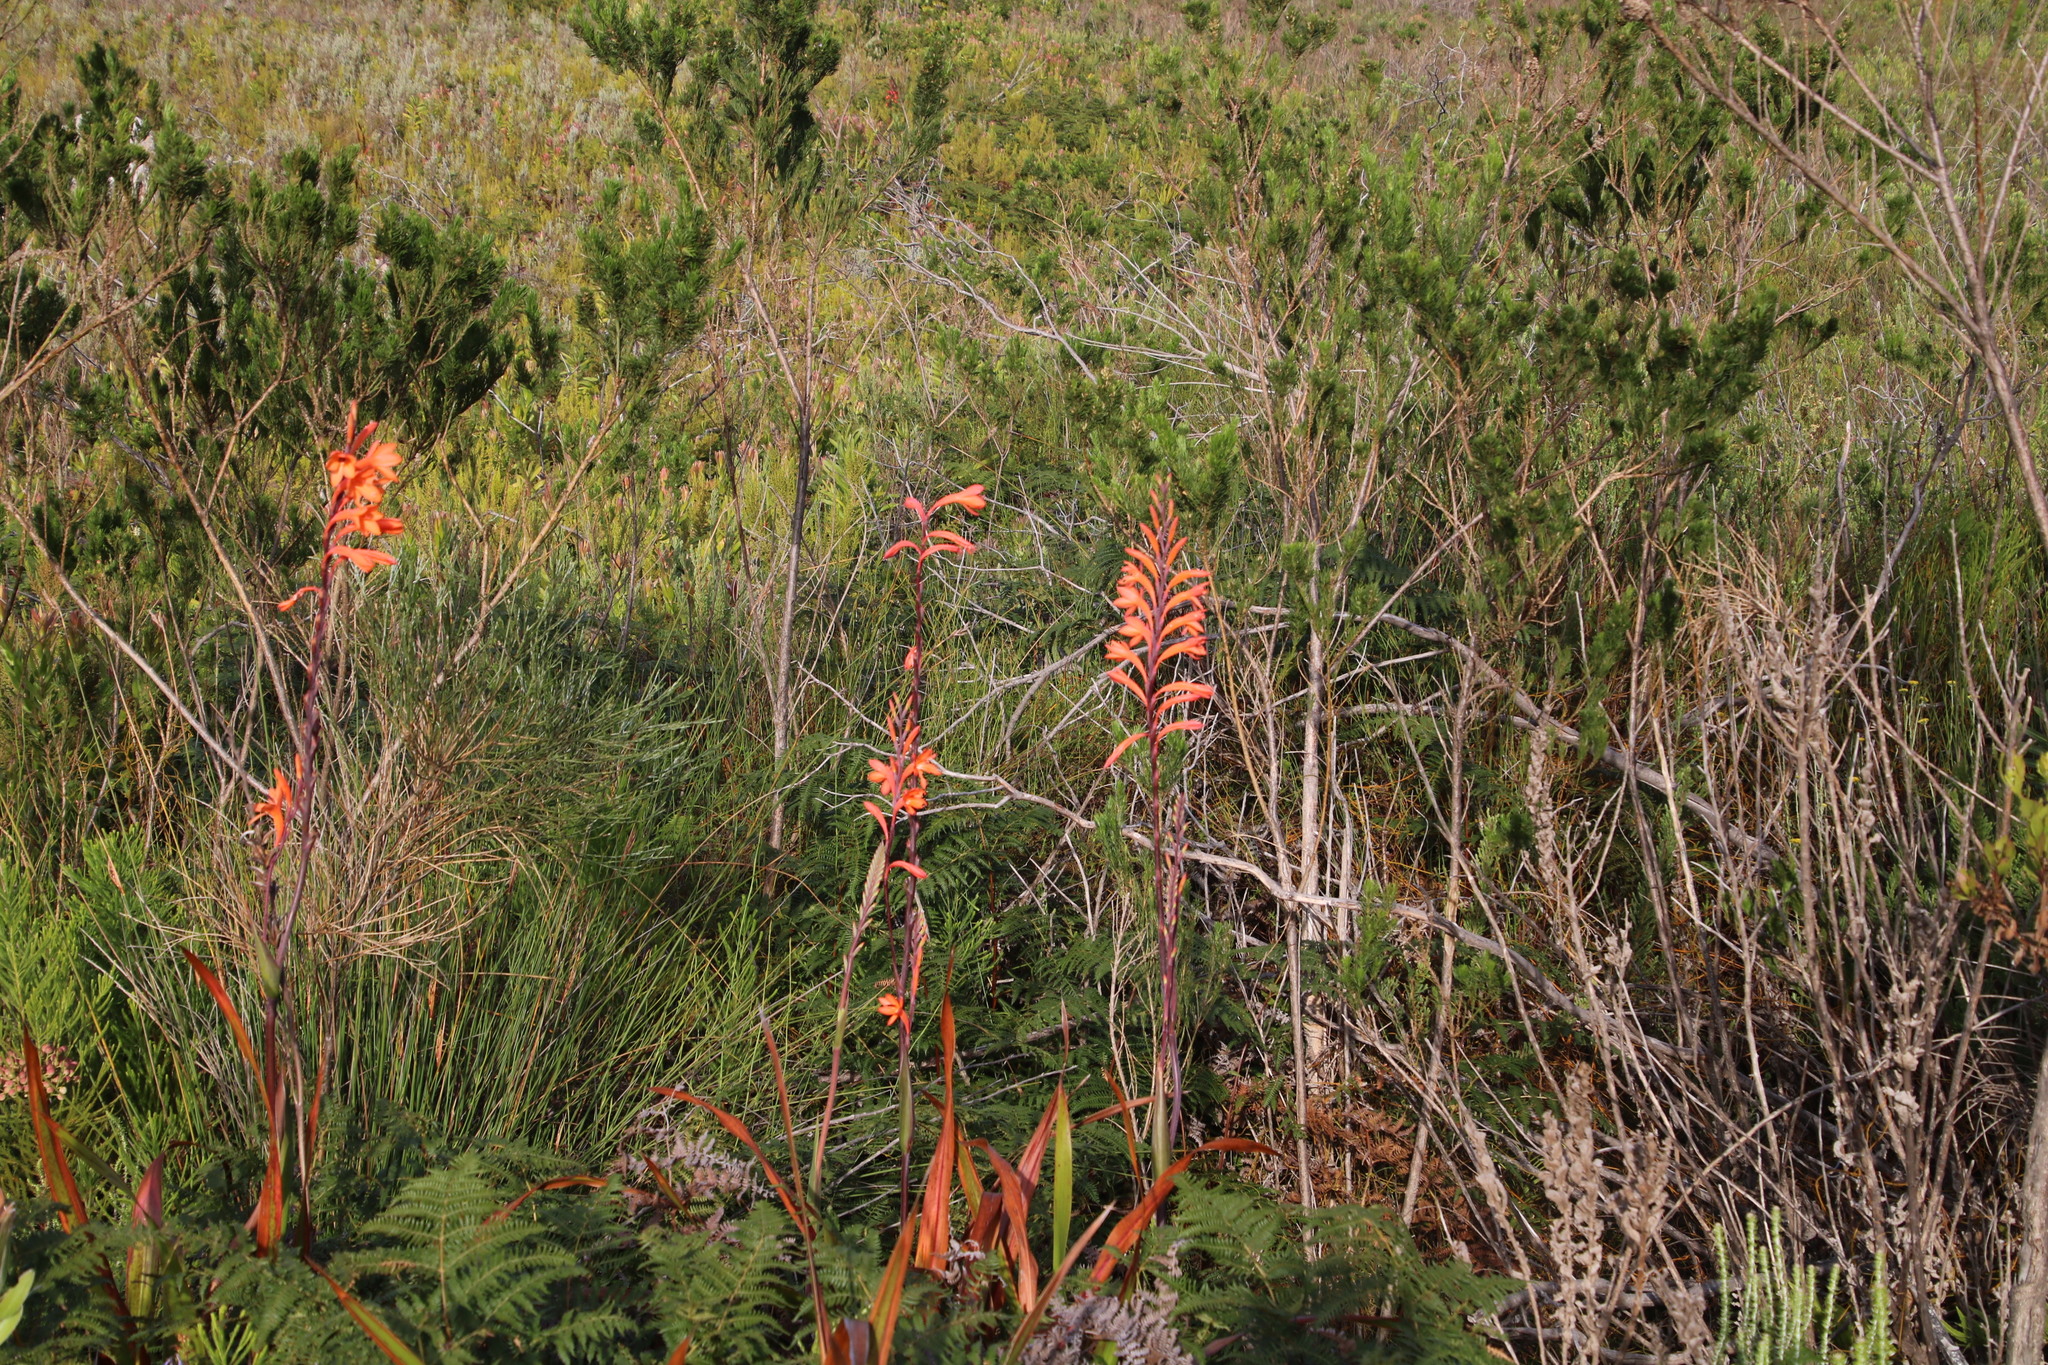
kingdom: Plantae
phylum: Tracheophyta
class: Liliopsida
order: Asparagales
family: Iridaceae
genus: Watsonia
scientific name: Watsonia tabularis
